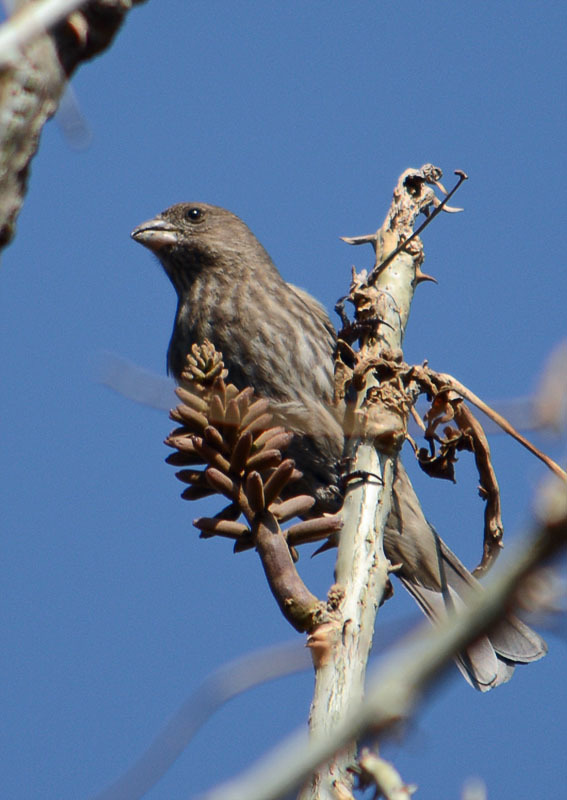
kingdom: Animalia
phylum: Chordata
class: Aves
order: Passeriformes
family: Fringillidae
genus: Haemorhous
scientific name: Haemorhous mexicanus
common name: House finch
